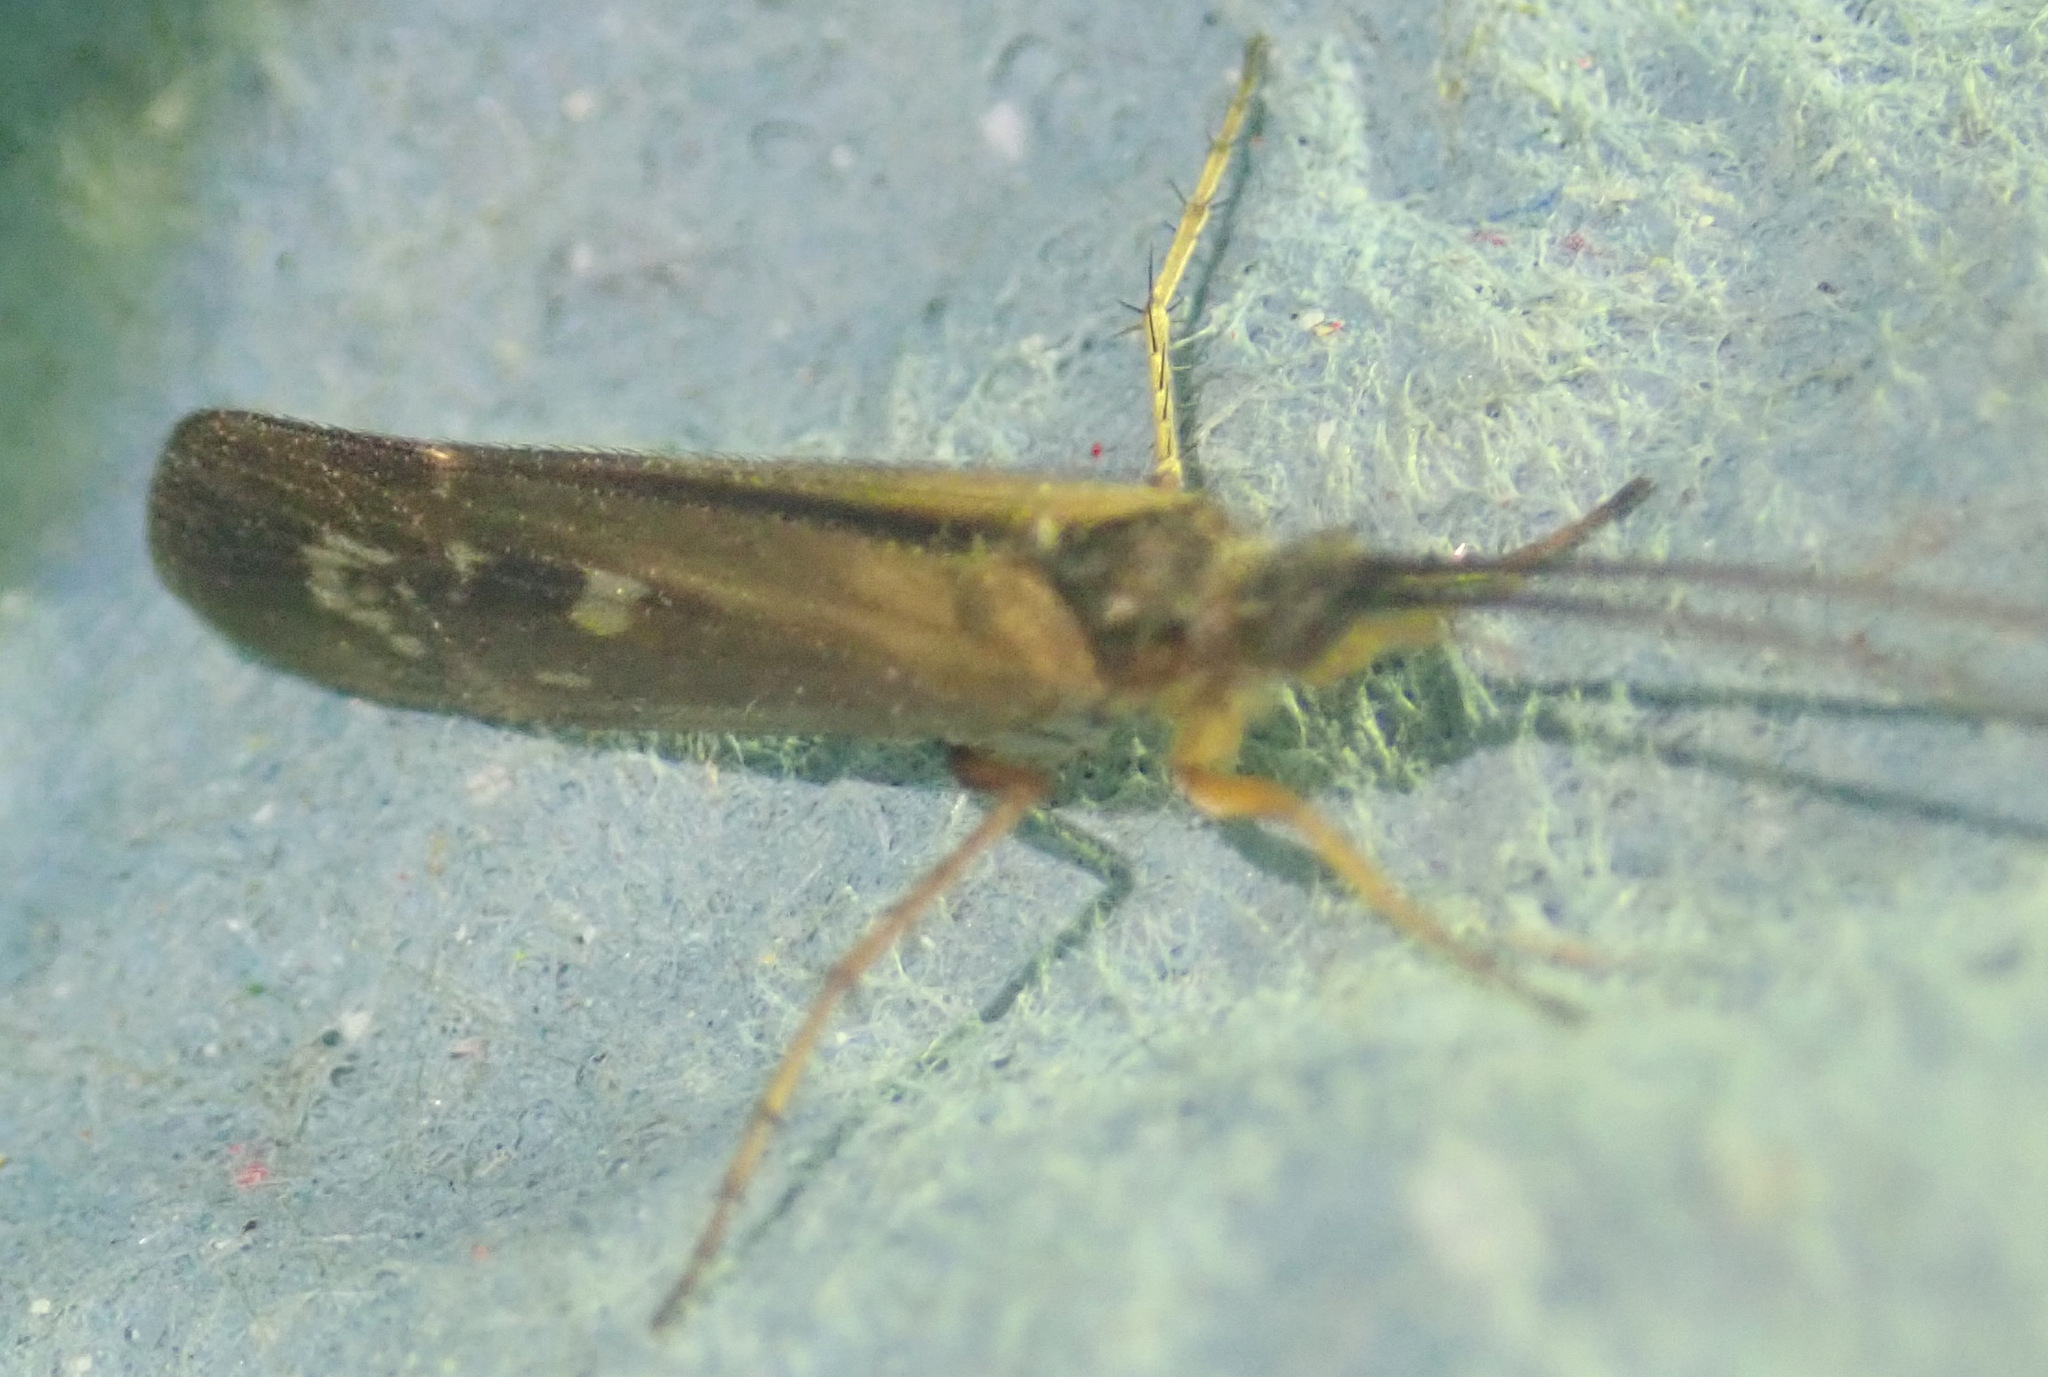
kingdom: Animalia
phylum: Arthropoda
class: Insecta
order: Trichoptera
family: Limnephilidae
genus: Limnephilus
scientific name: Limnephilus auricula
